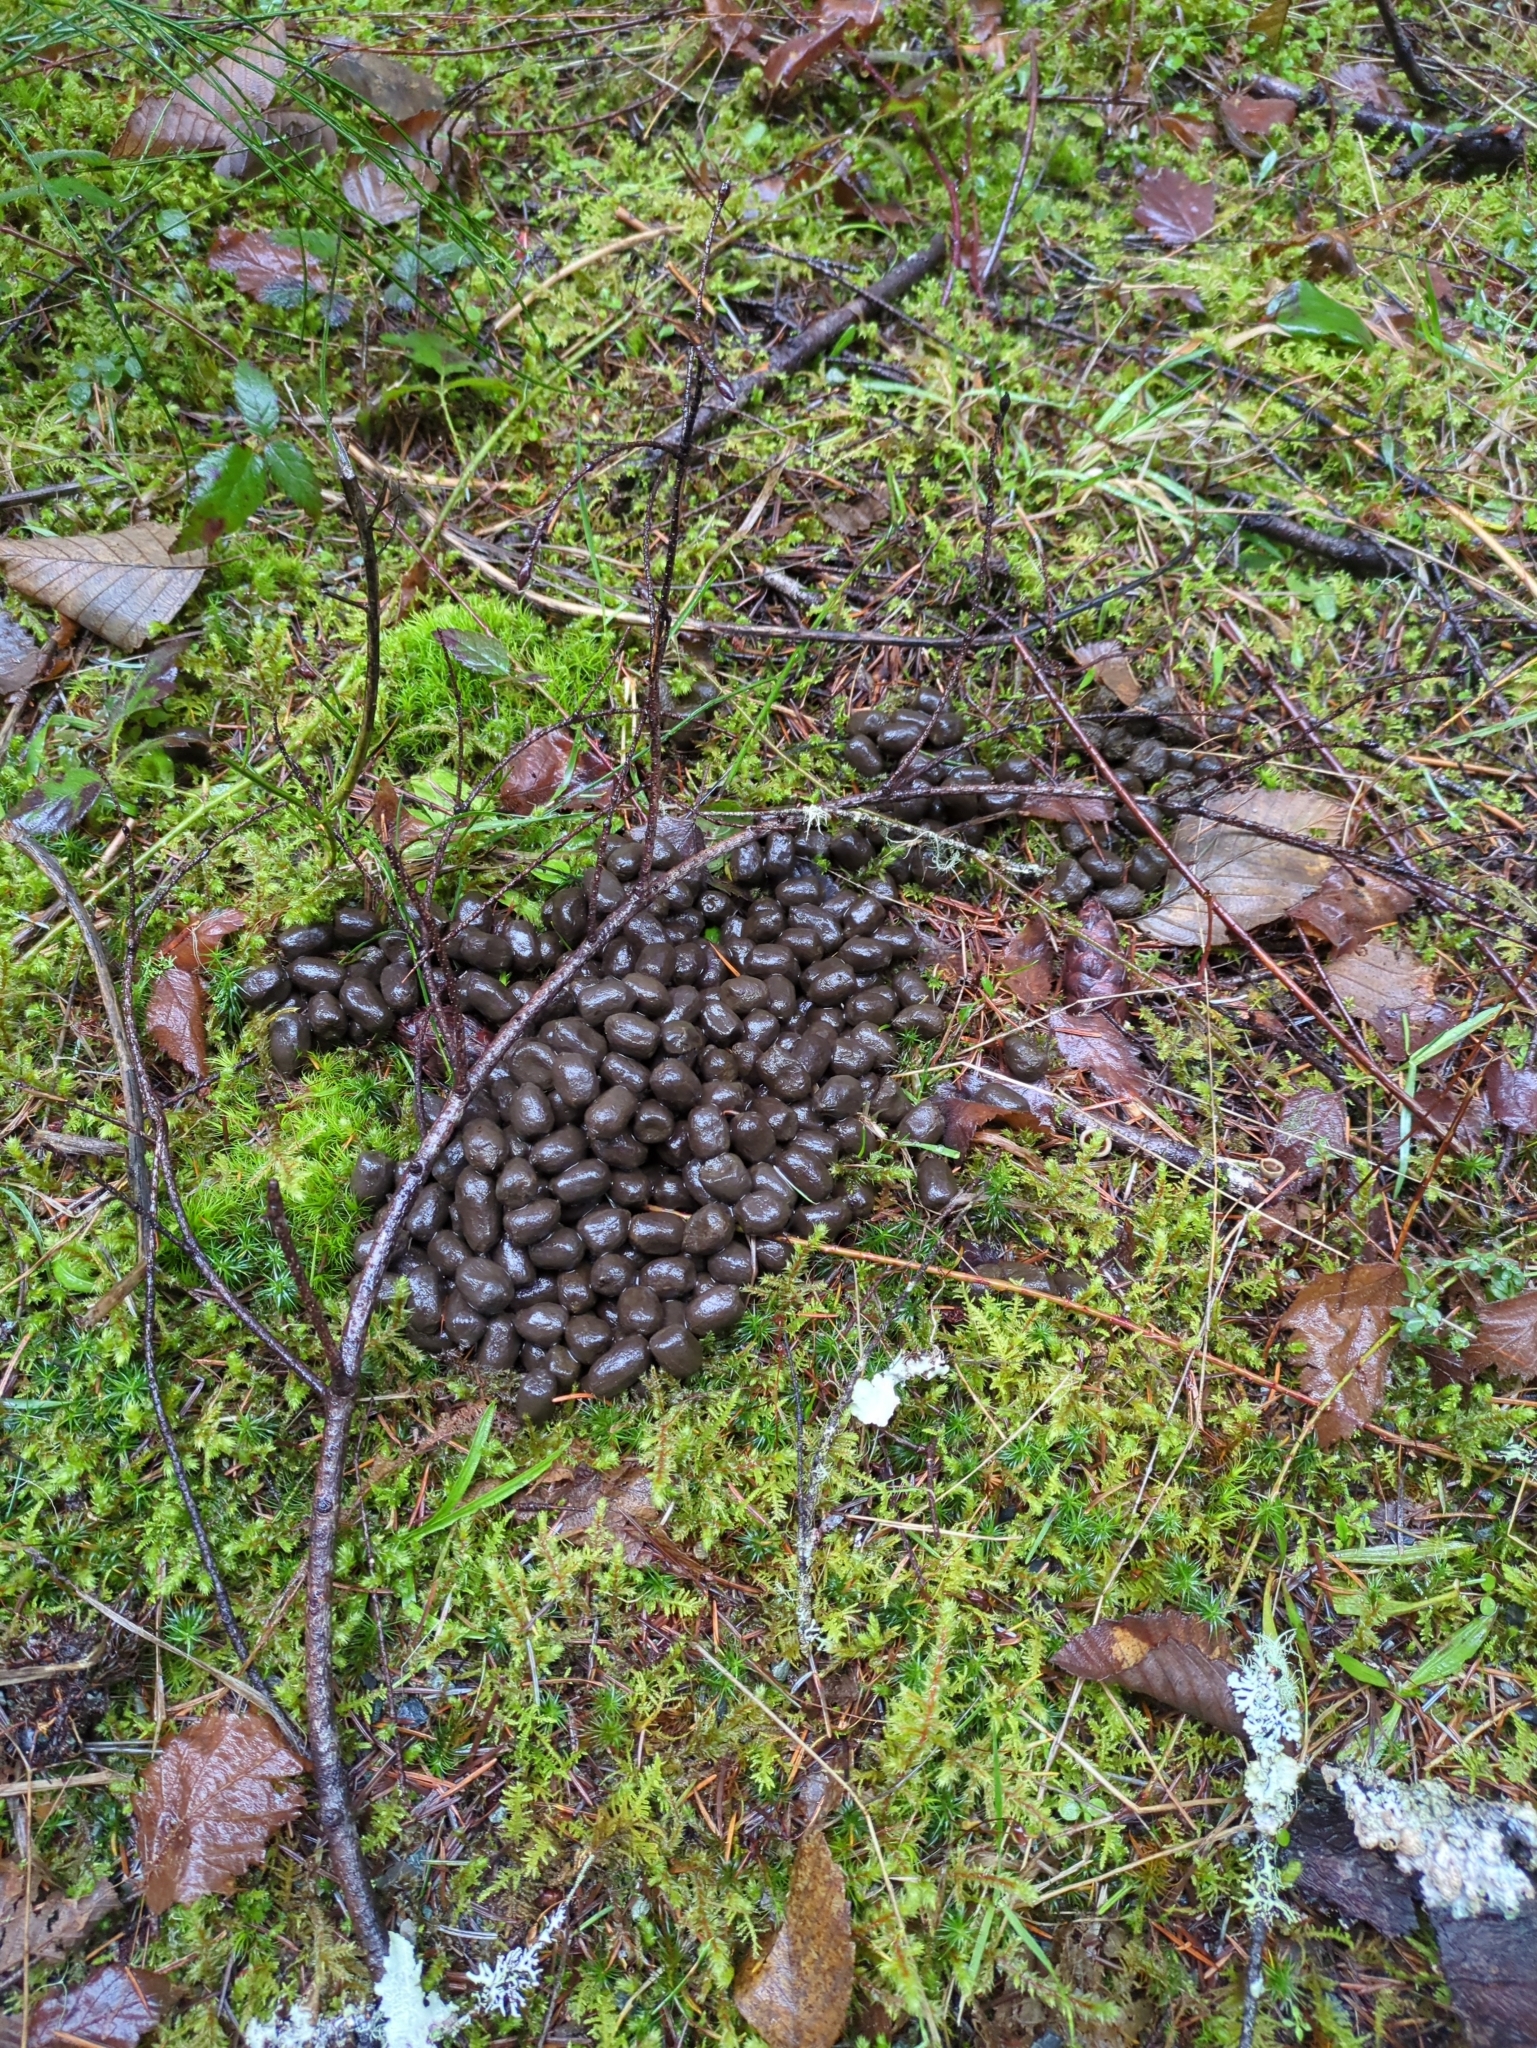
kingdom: Animalia
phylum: Chordata
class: Mammalia
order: Artiodactyla
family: Cervidae
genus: Cervus
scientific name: Cervus elaphus
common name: Red deer
